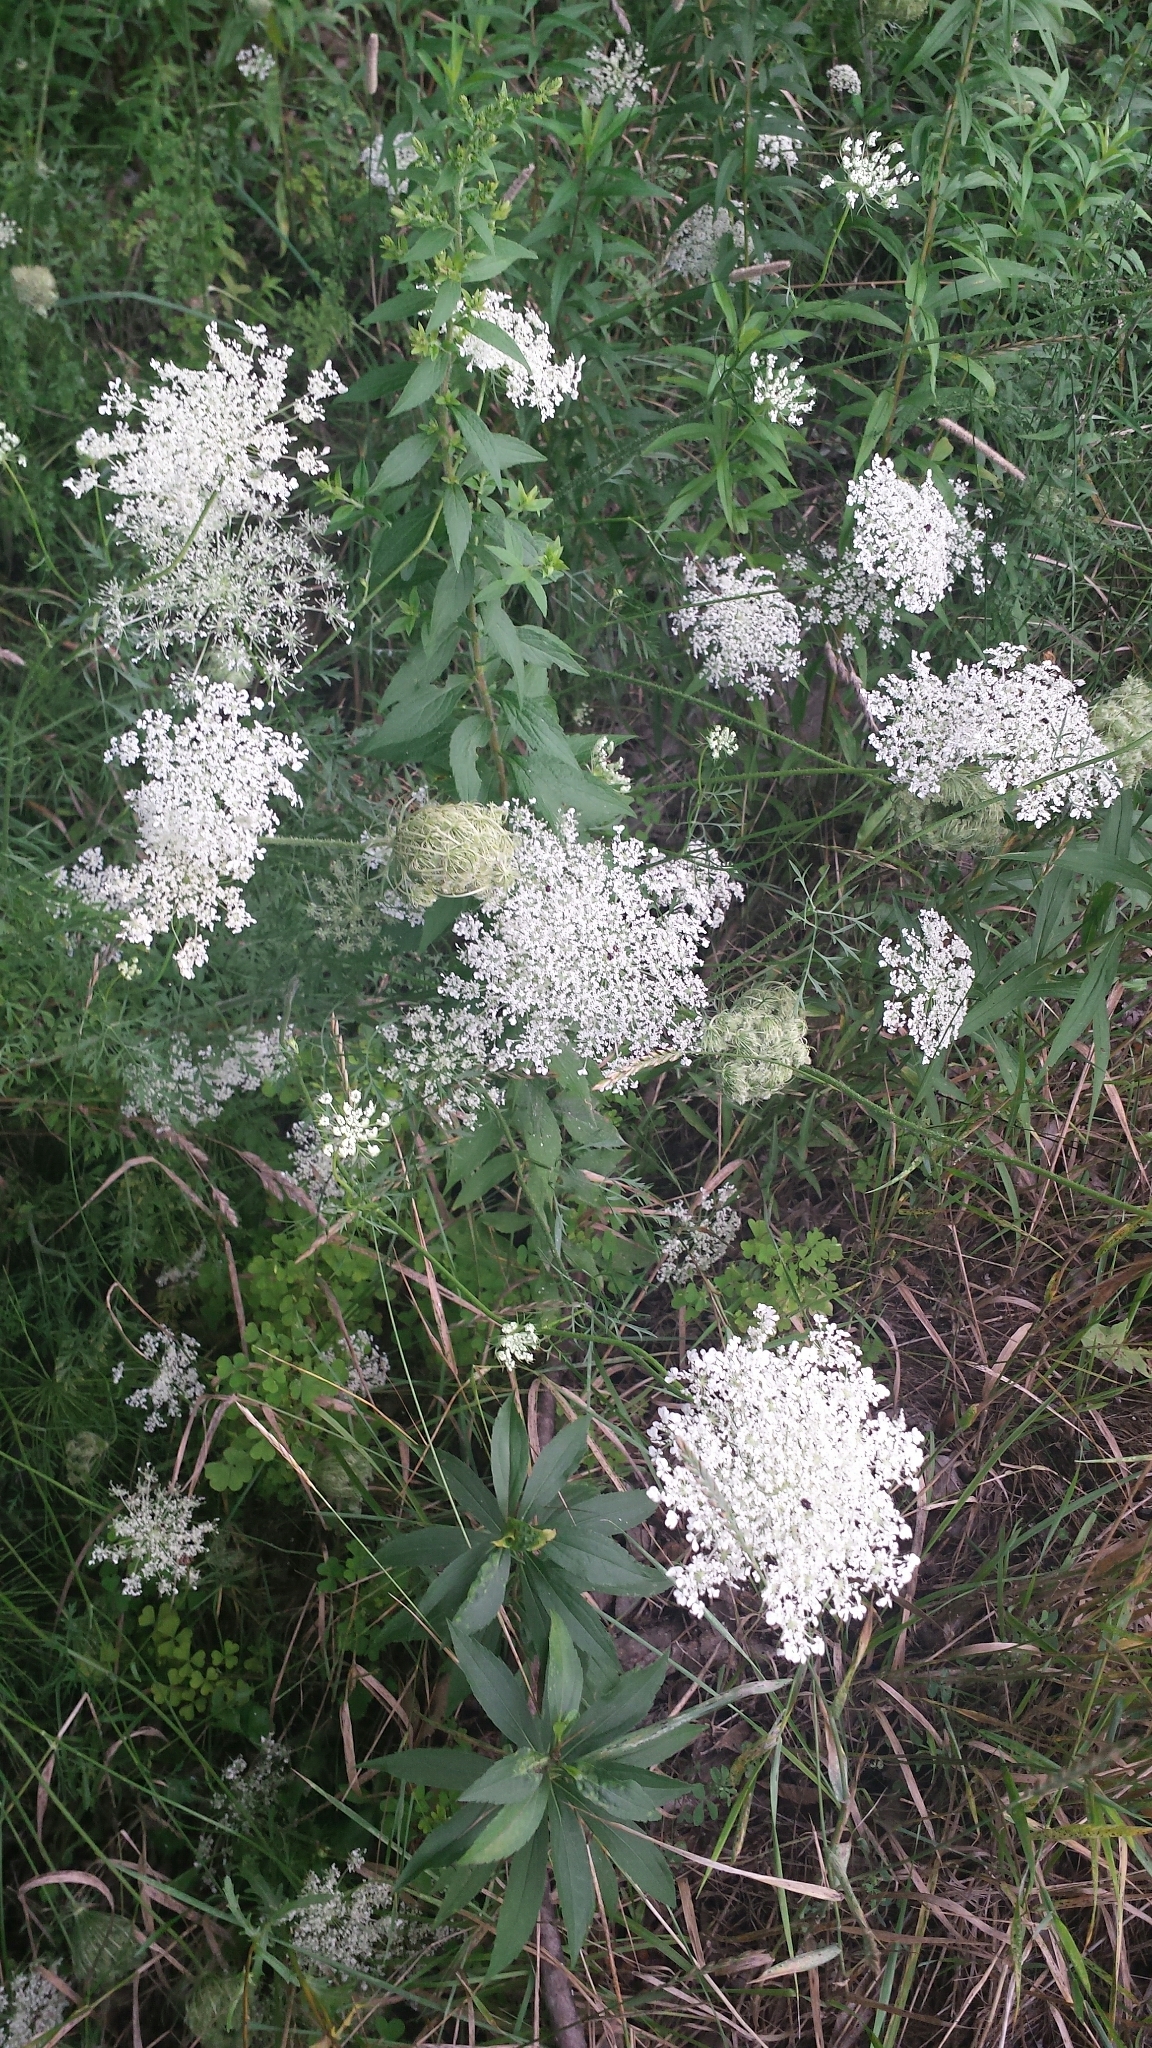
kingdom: Plantae
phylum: Tracheophyta
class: Magnoliopsida
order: Apiales
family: Apiaceae
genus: Daucus
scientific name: Daucus carota
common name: Wild carrot
